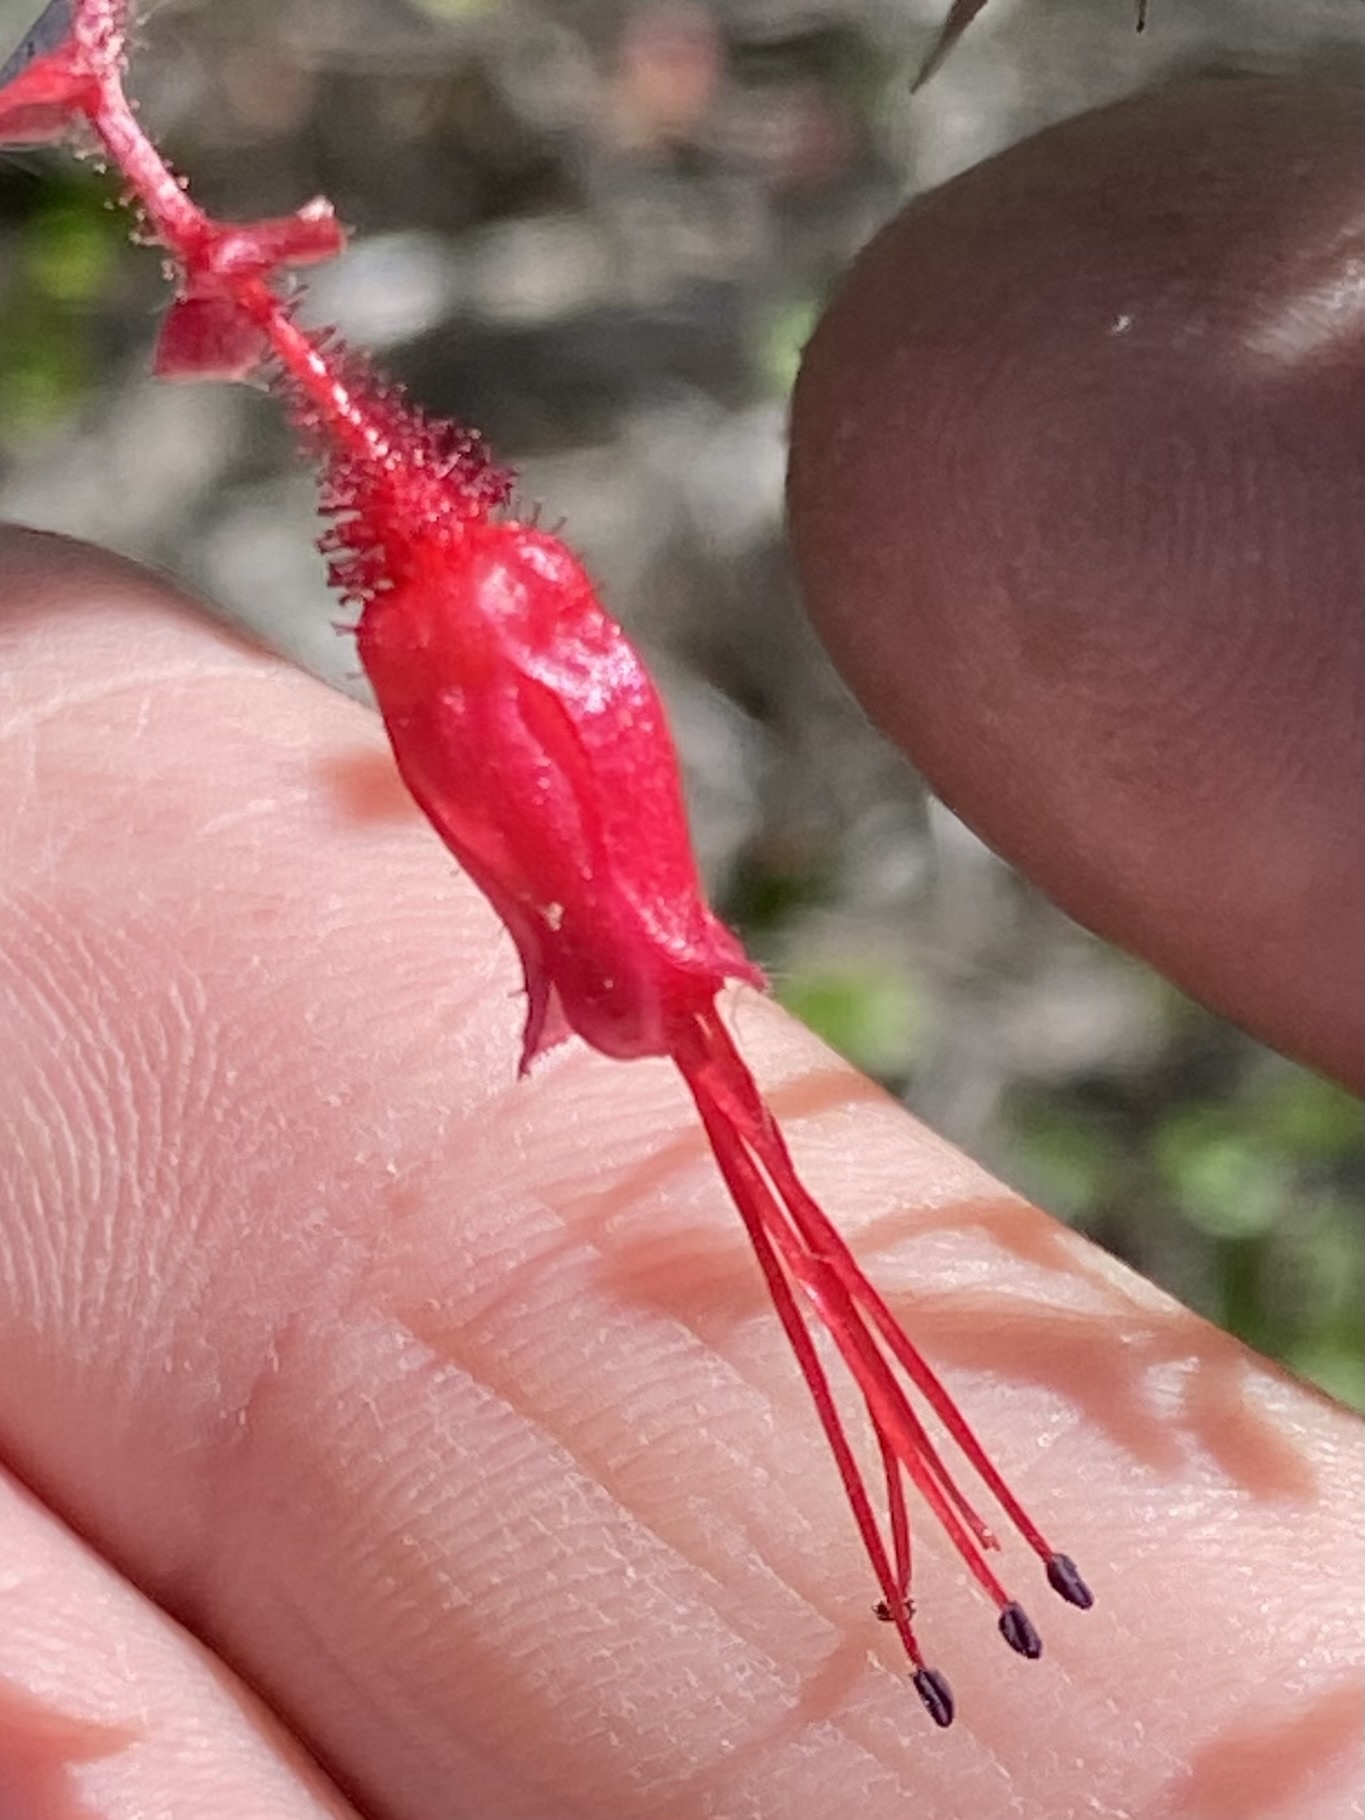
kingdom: Plantae
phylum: Tracheophyta
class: Magnoliopsida
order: Saxifragales
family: Grossulariaceae
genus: Ribes
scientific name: Ribes speciosum
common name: Fuchsia-flower gooseberry
